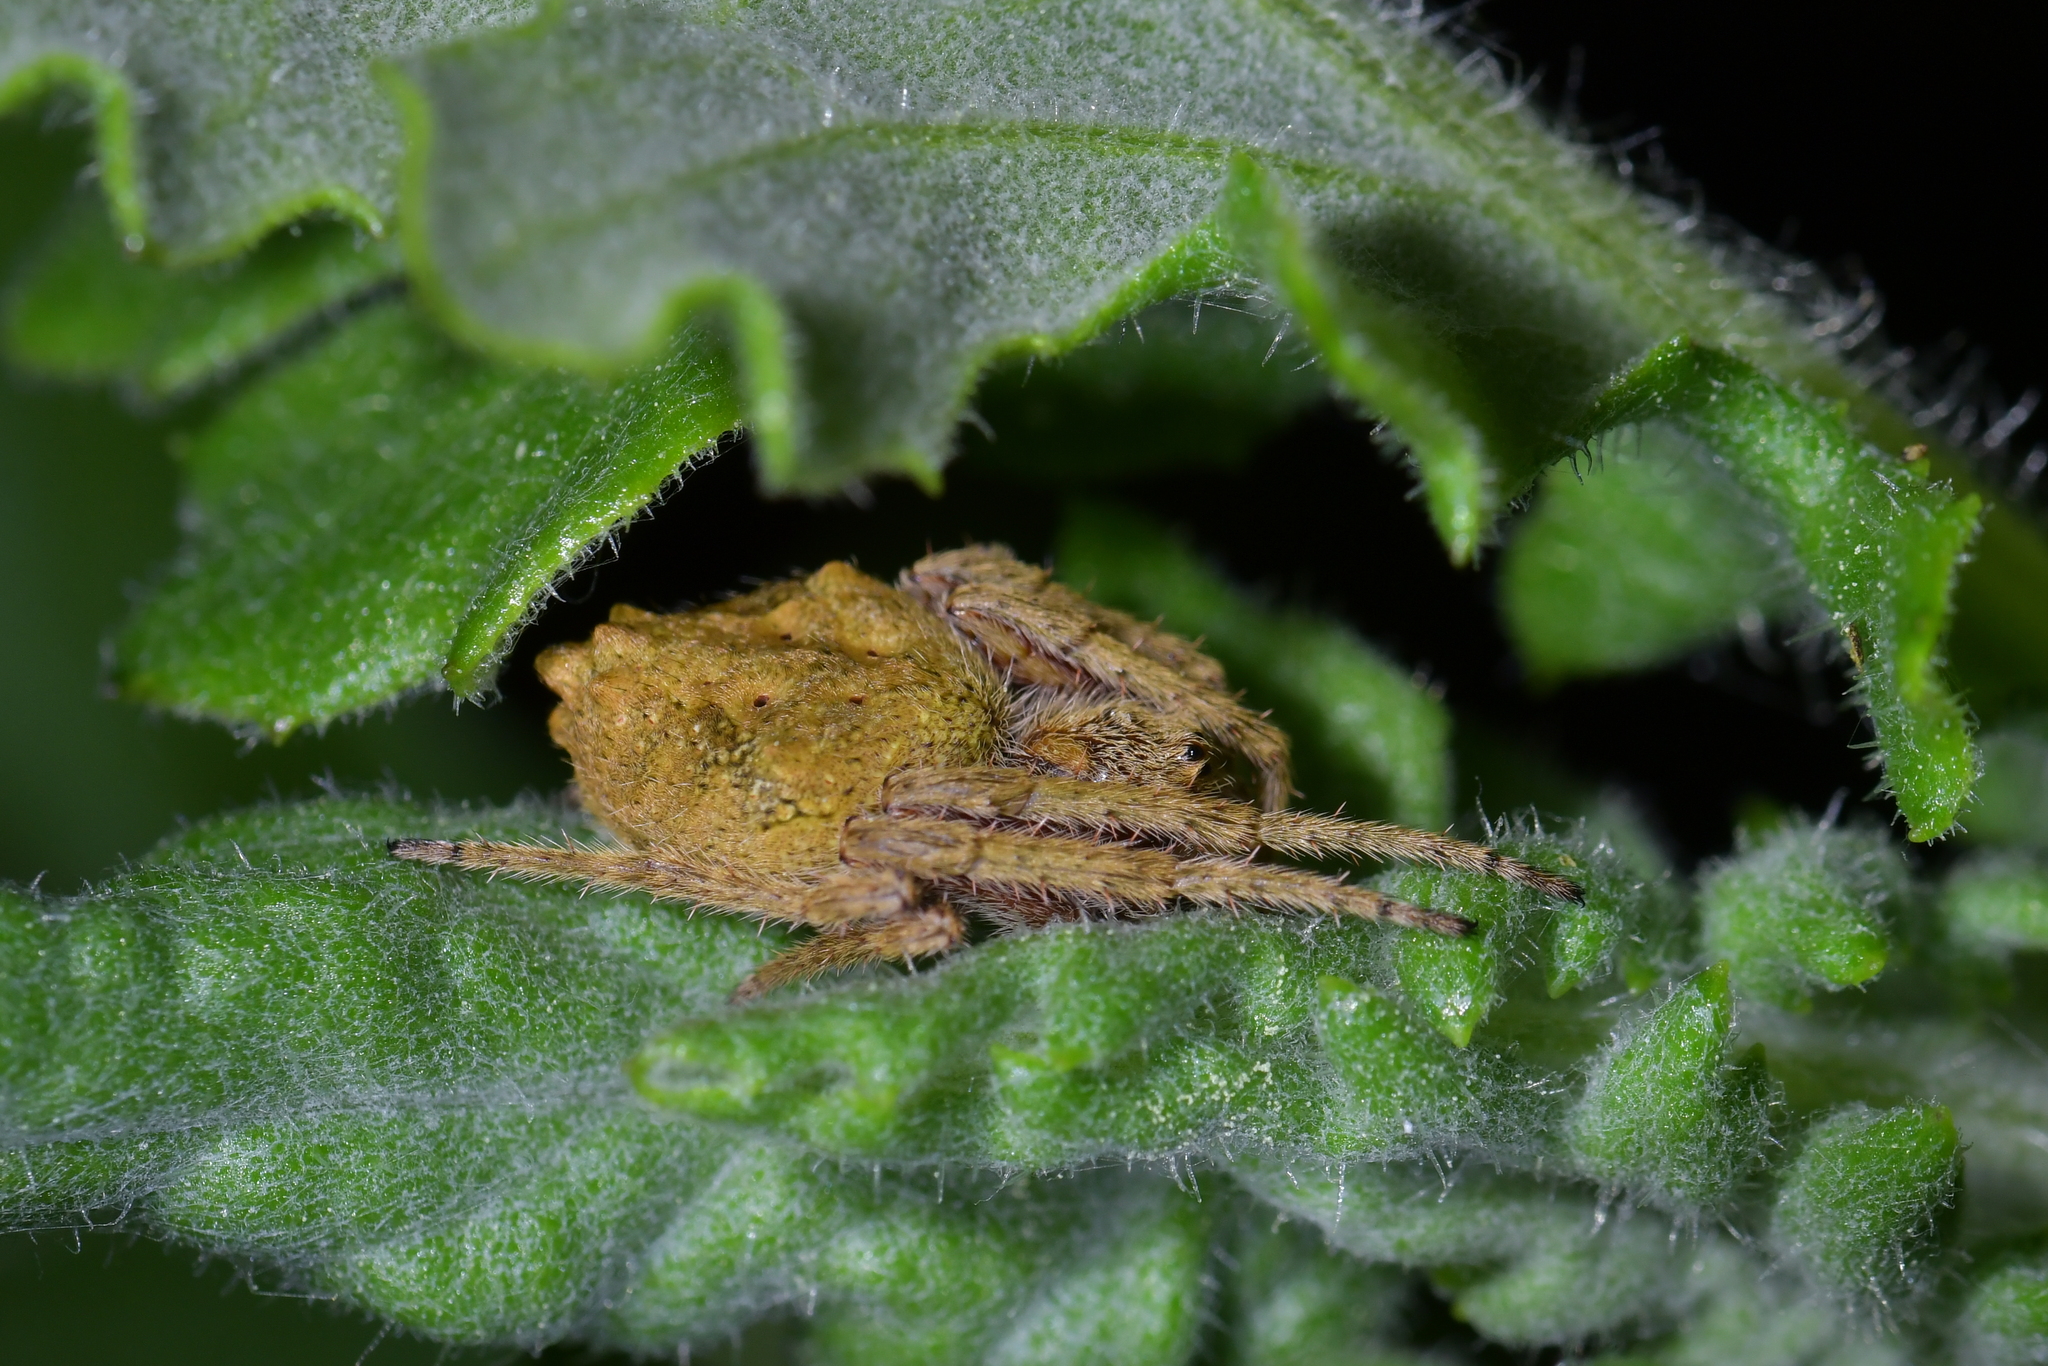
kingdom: Animalia
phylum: Arthropoda
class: Arachnida
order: Araneae
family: Araneidae
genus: Eriophora
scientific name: Eriophora pustulosa
